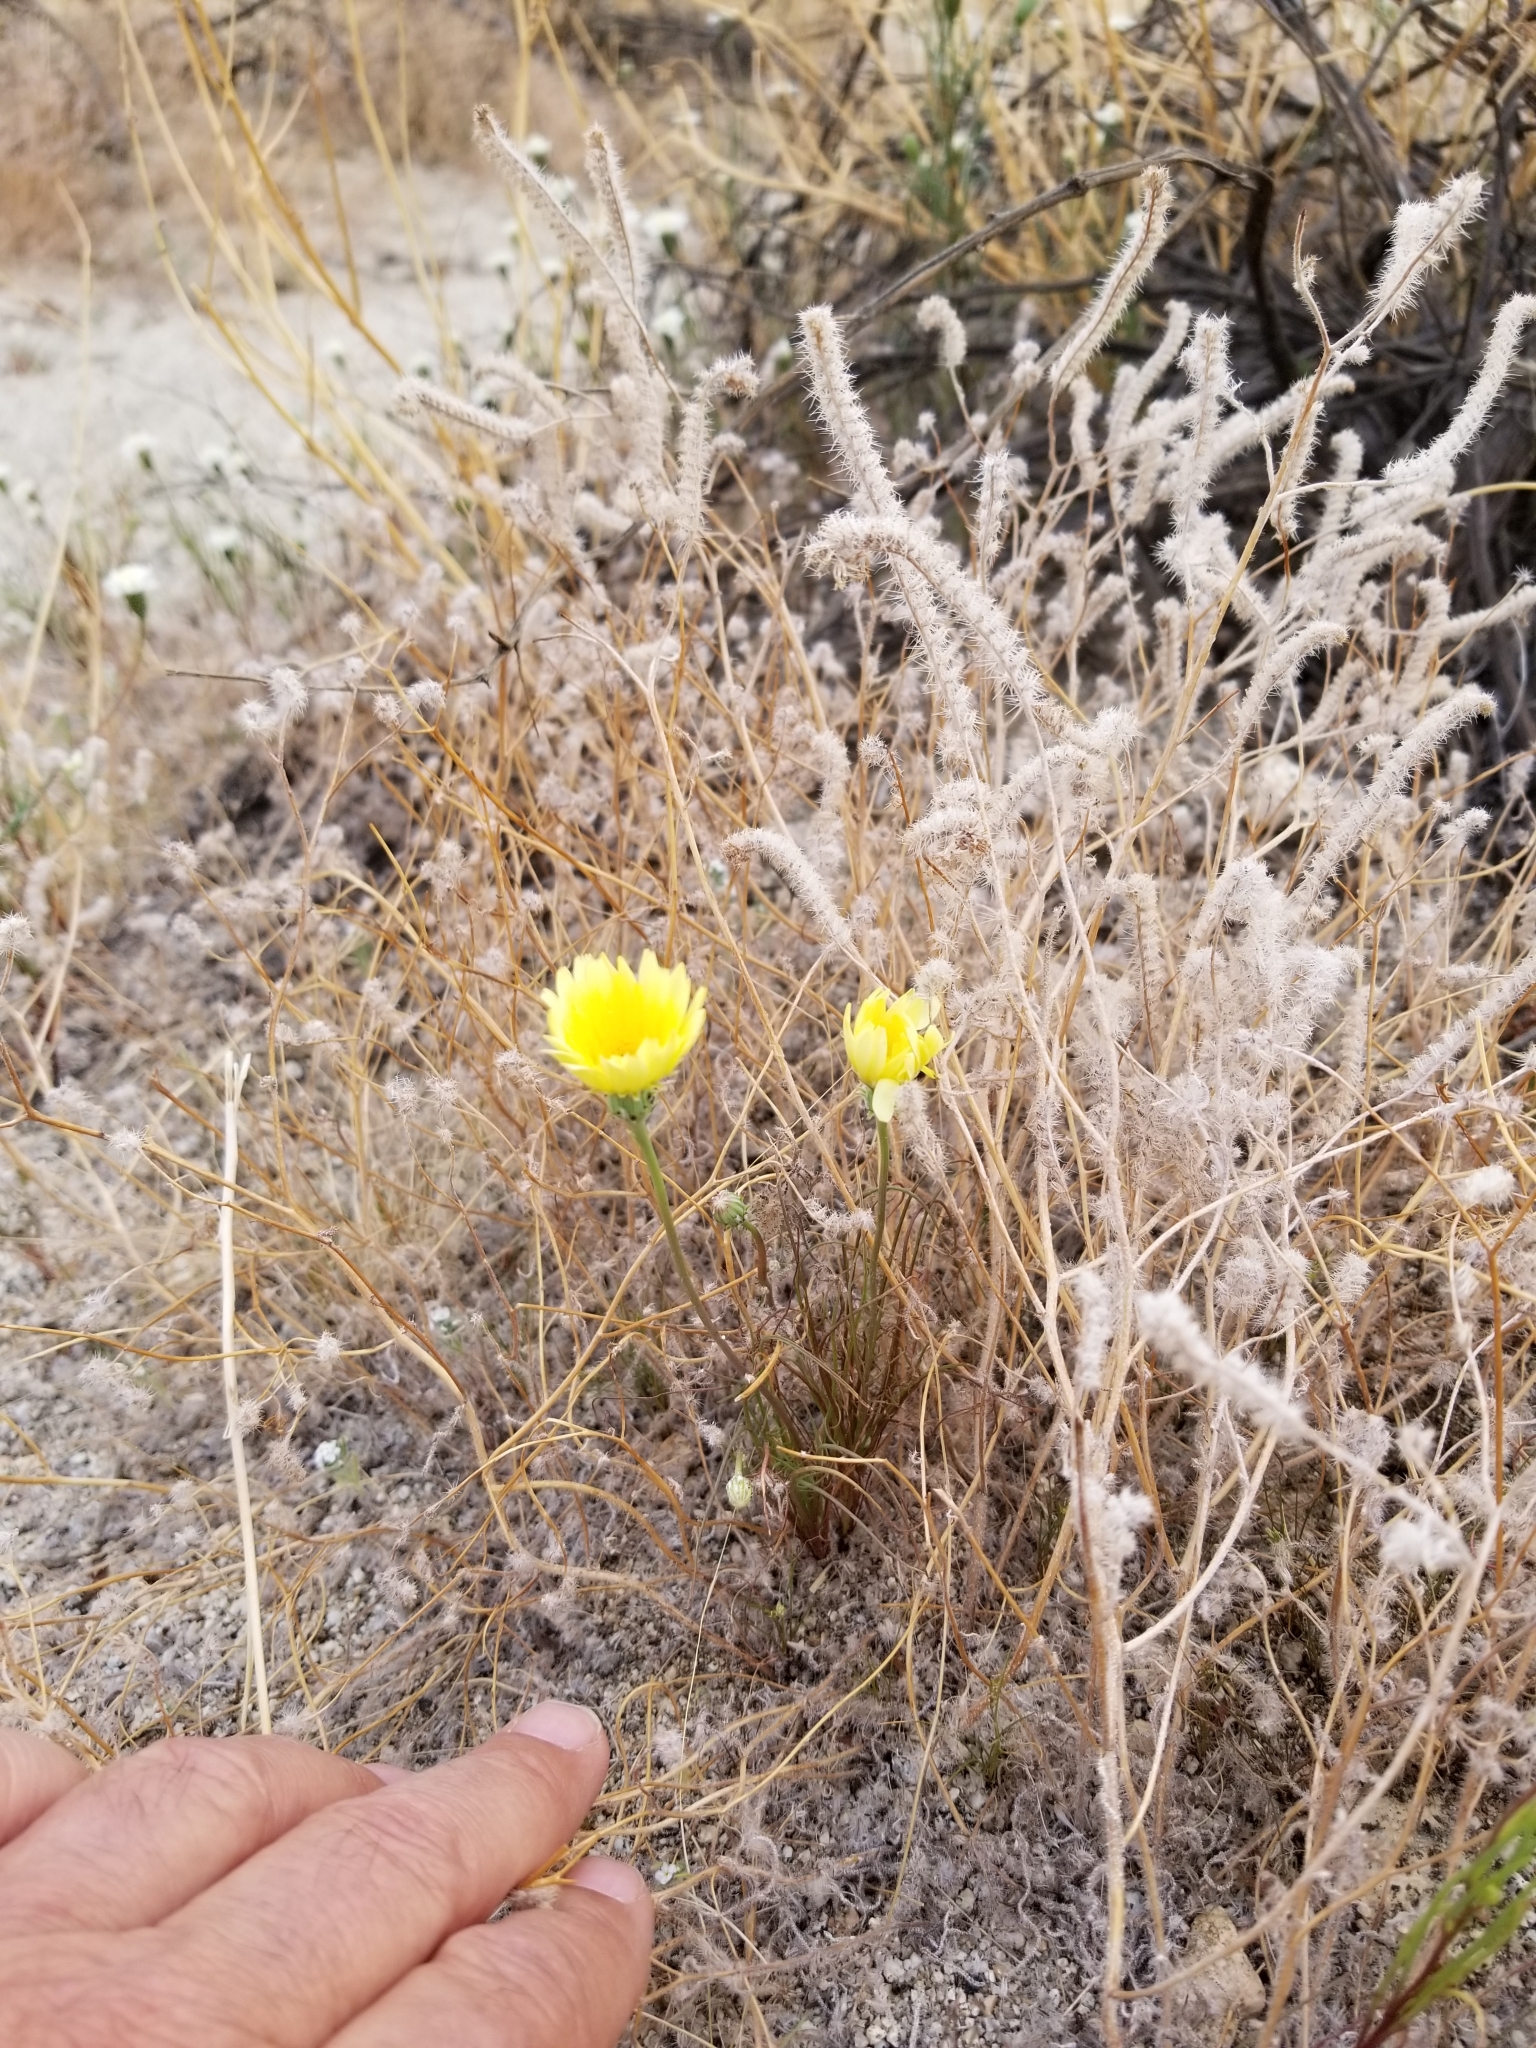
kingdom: Plantae
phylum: Tracheophyta
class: Magnoliopsida
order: Asterales
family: Asteraceae
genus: Malacothrix
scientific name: Malacothrix glabrata
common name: Smooth desert-dandelion
